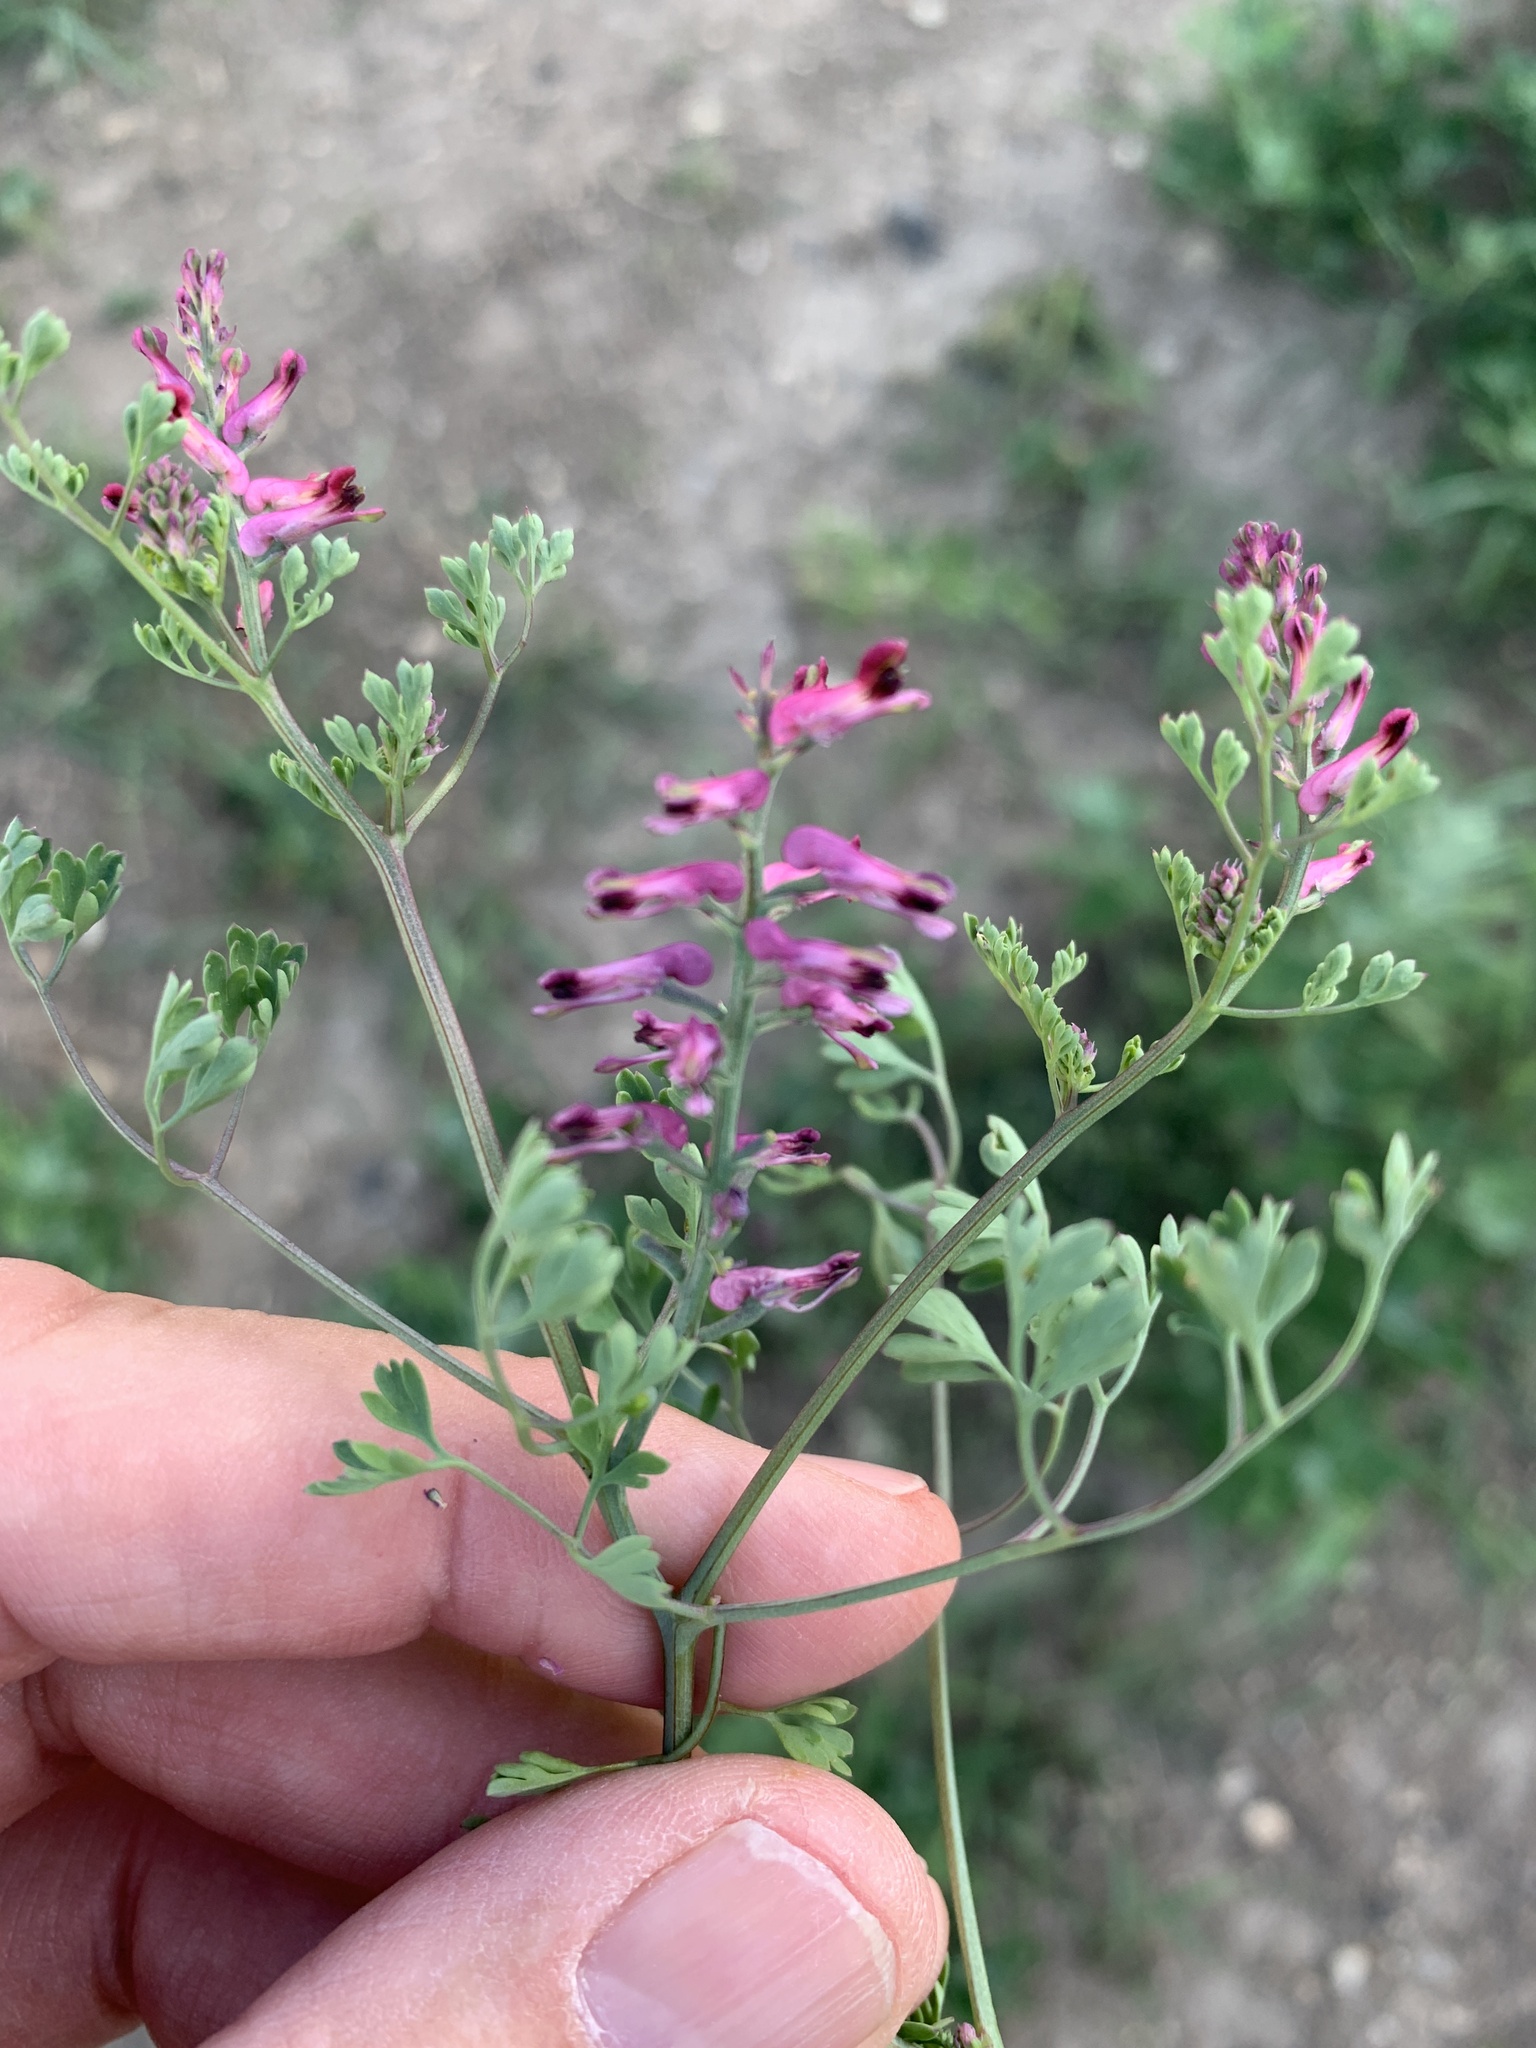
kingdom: Plantae
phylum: Tracheophyta
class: Magnoliopsida
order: Ranunculales
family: Papaveraceae
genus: Fumaria
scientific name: Fumaria officinalis
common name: Common fumitory
